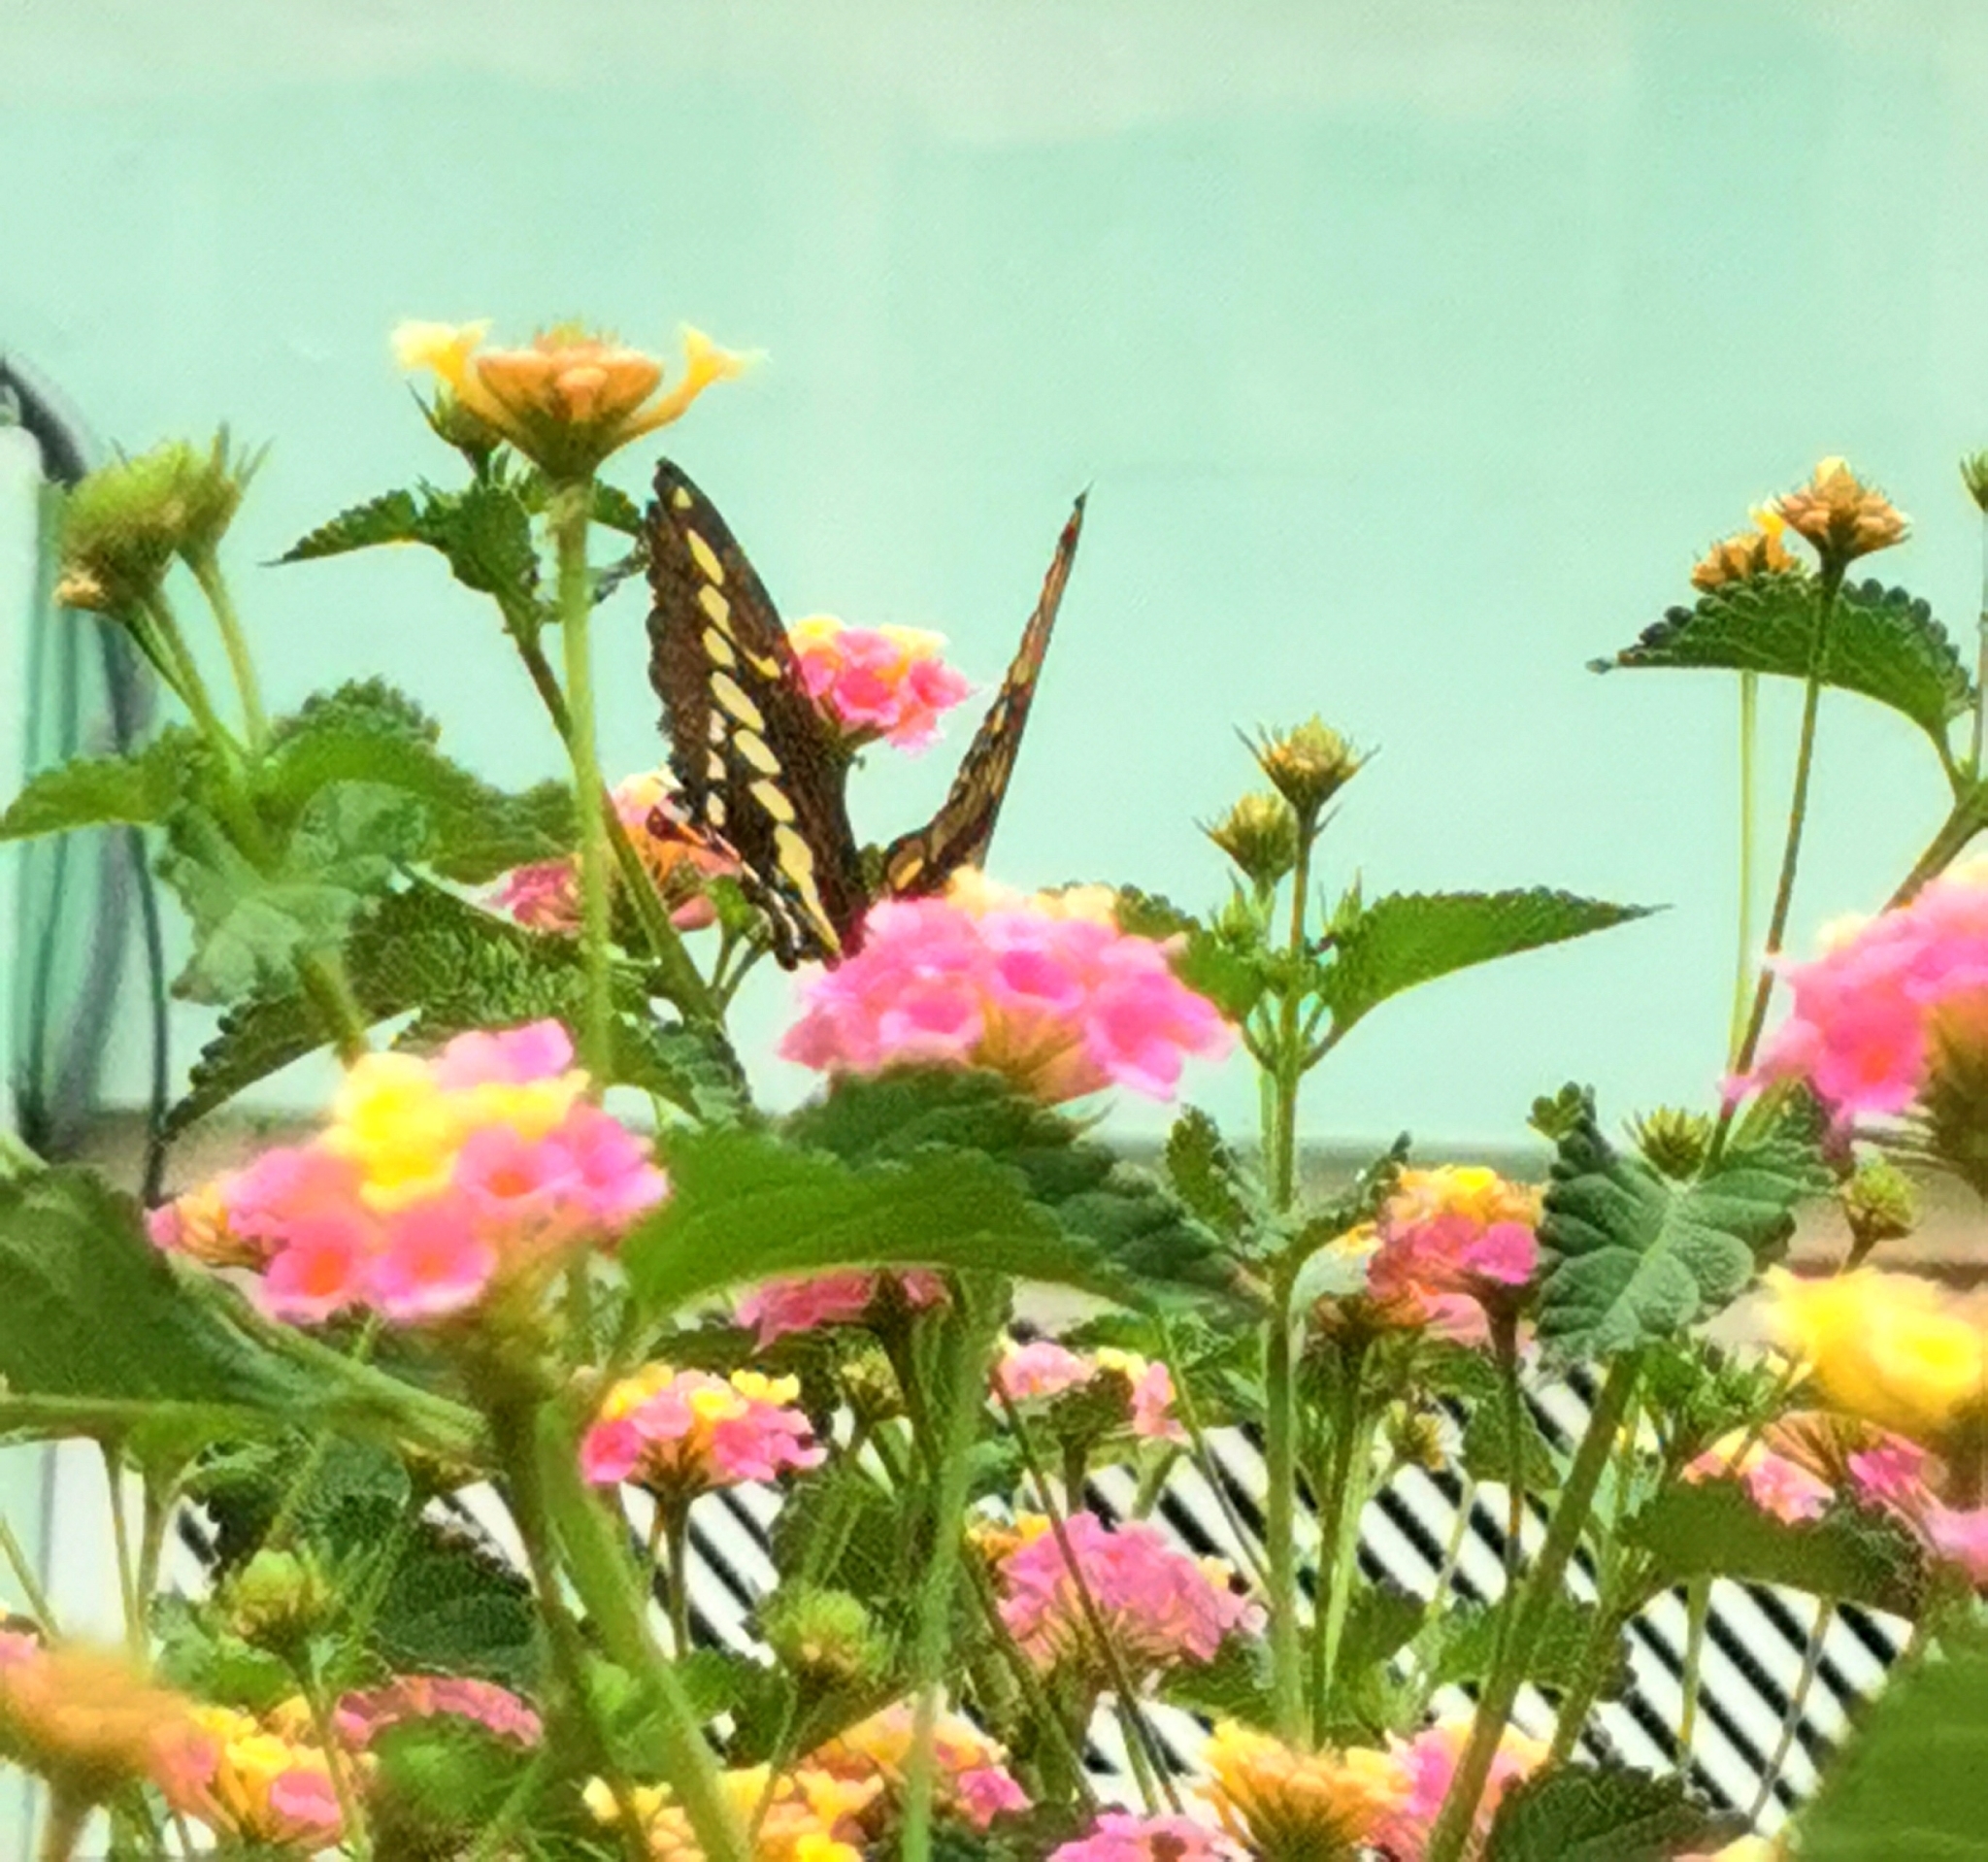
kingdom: Animalia
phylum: Arthropoda
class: Insecta
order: Lepidoptera
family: Papilionidae
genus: Papilio
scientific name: Papilio rumiko
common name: Western giant swallowtail
